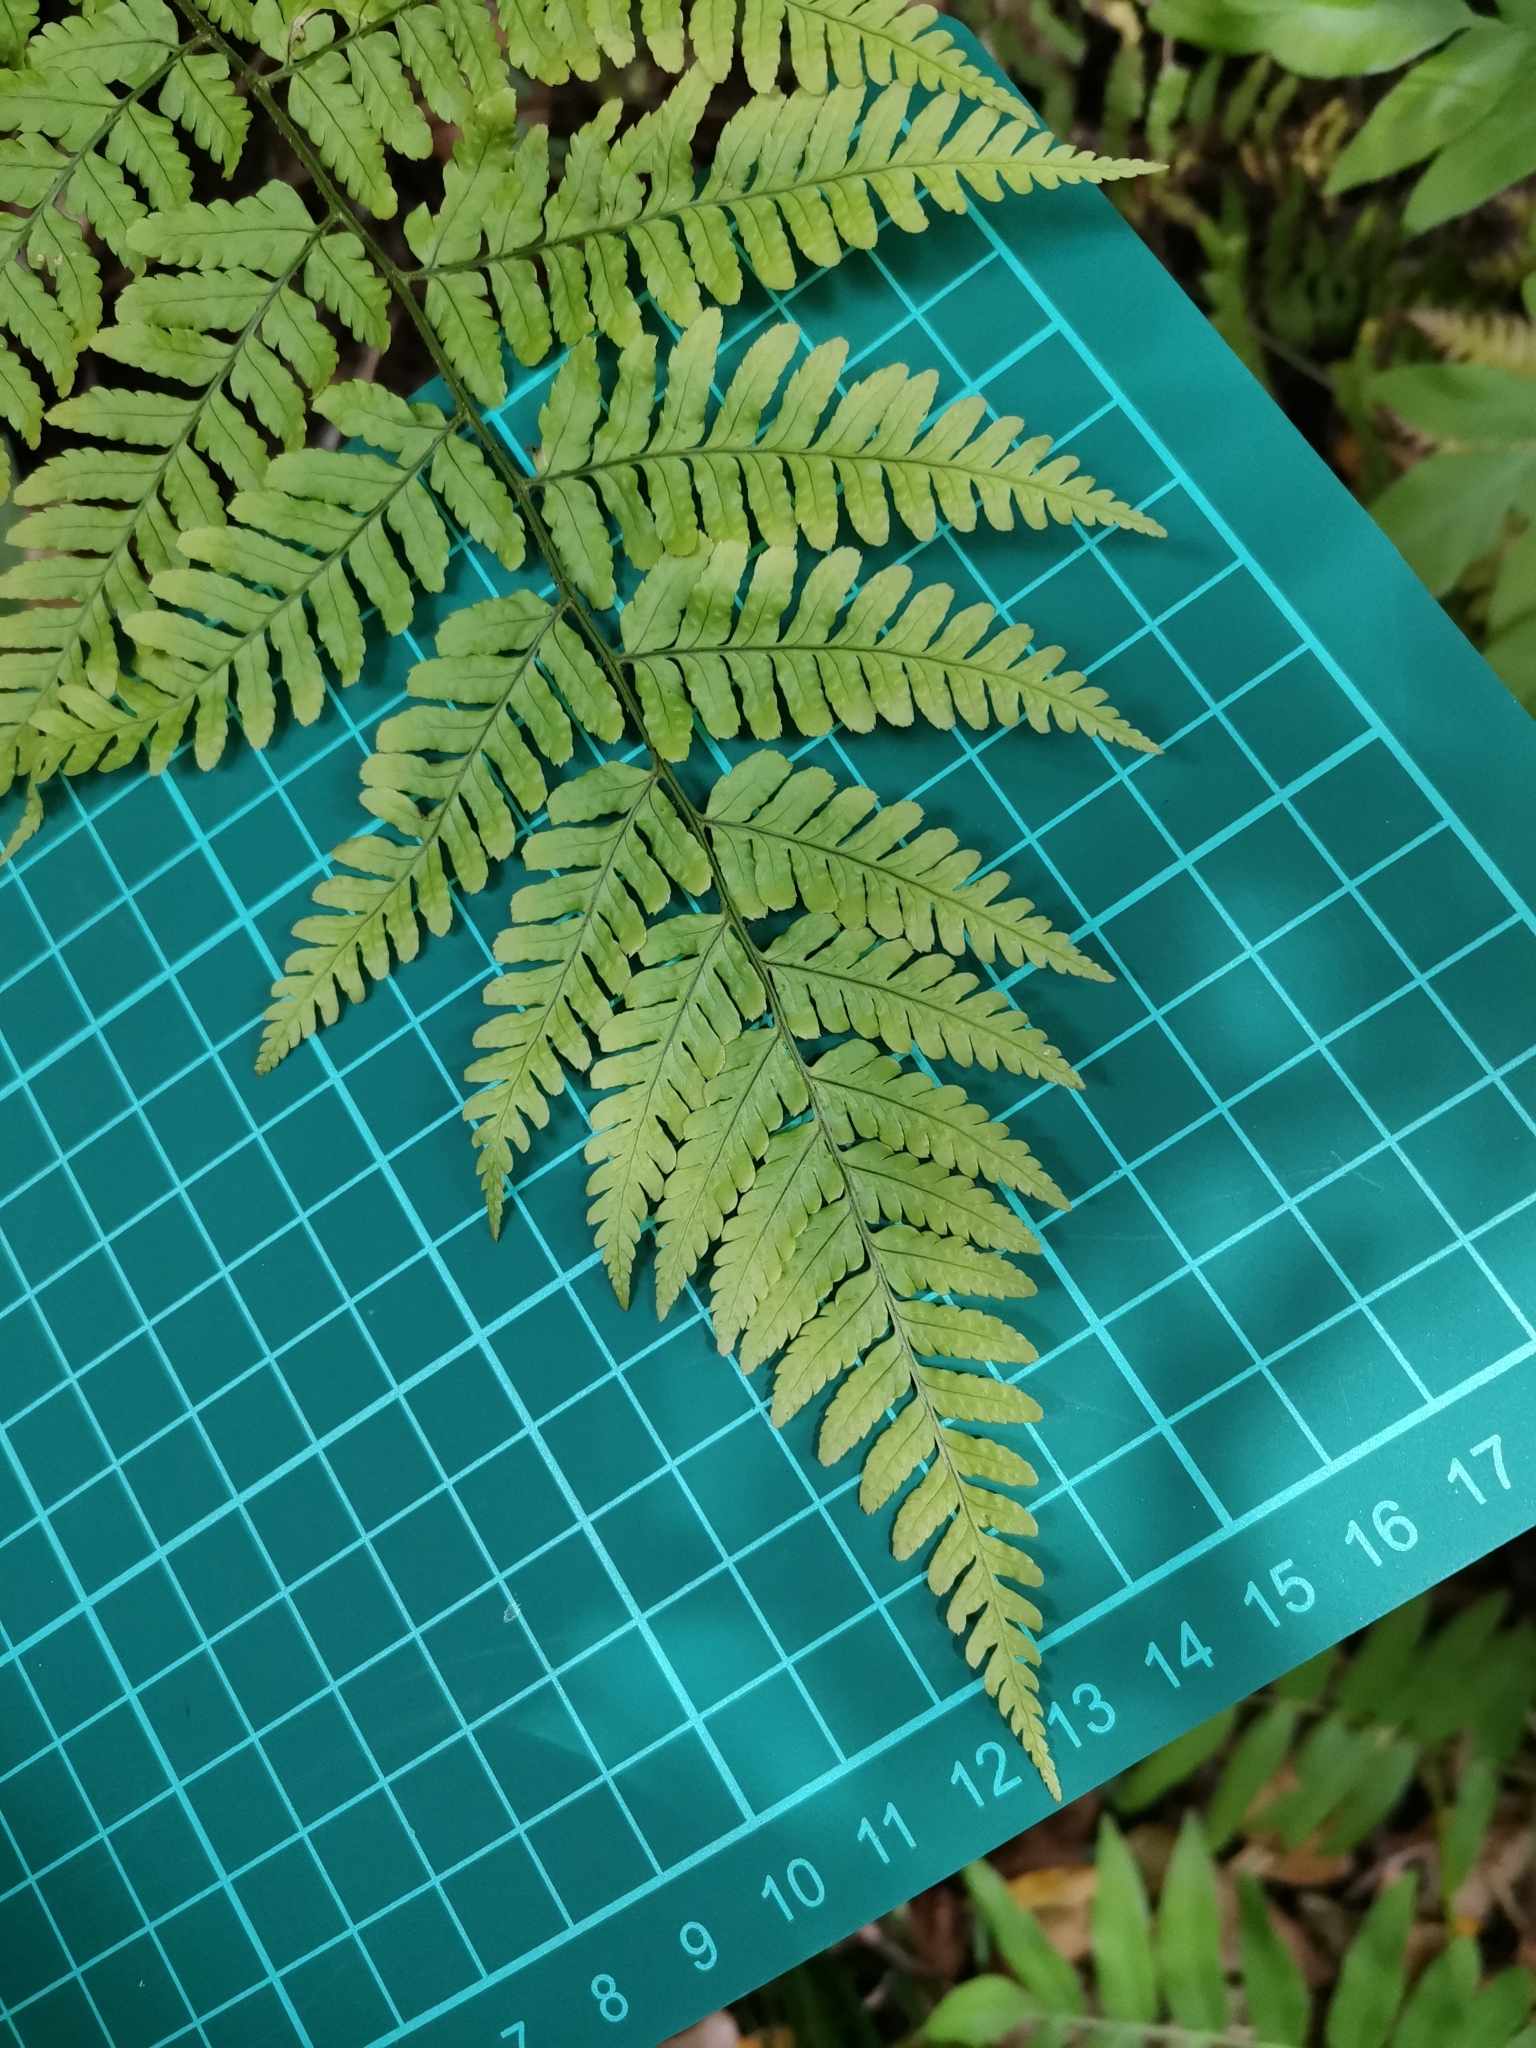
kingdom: Plantae
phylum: Tracheophyta
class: Polypodiopsida
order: Polypodiales
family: Dryopteridaceae
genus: Dryopteris
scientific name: Dryopteris erythrovaria
